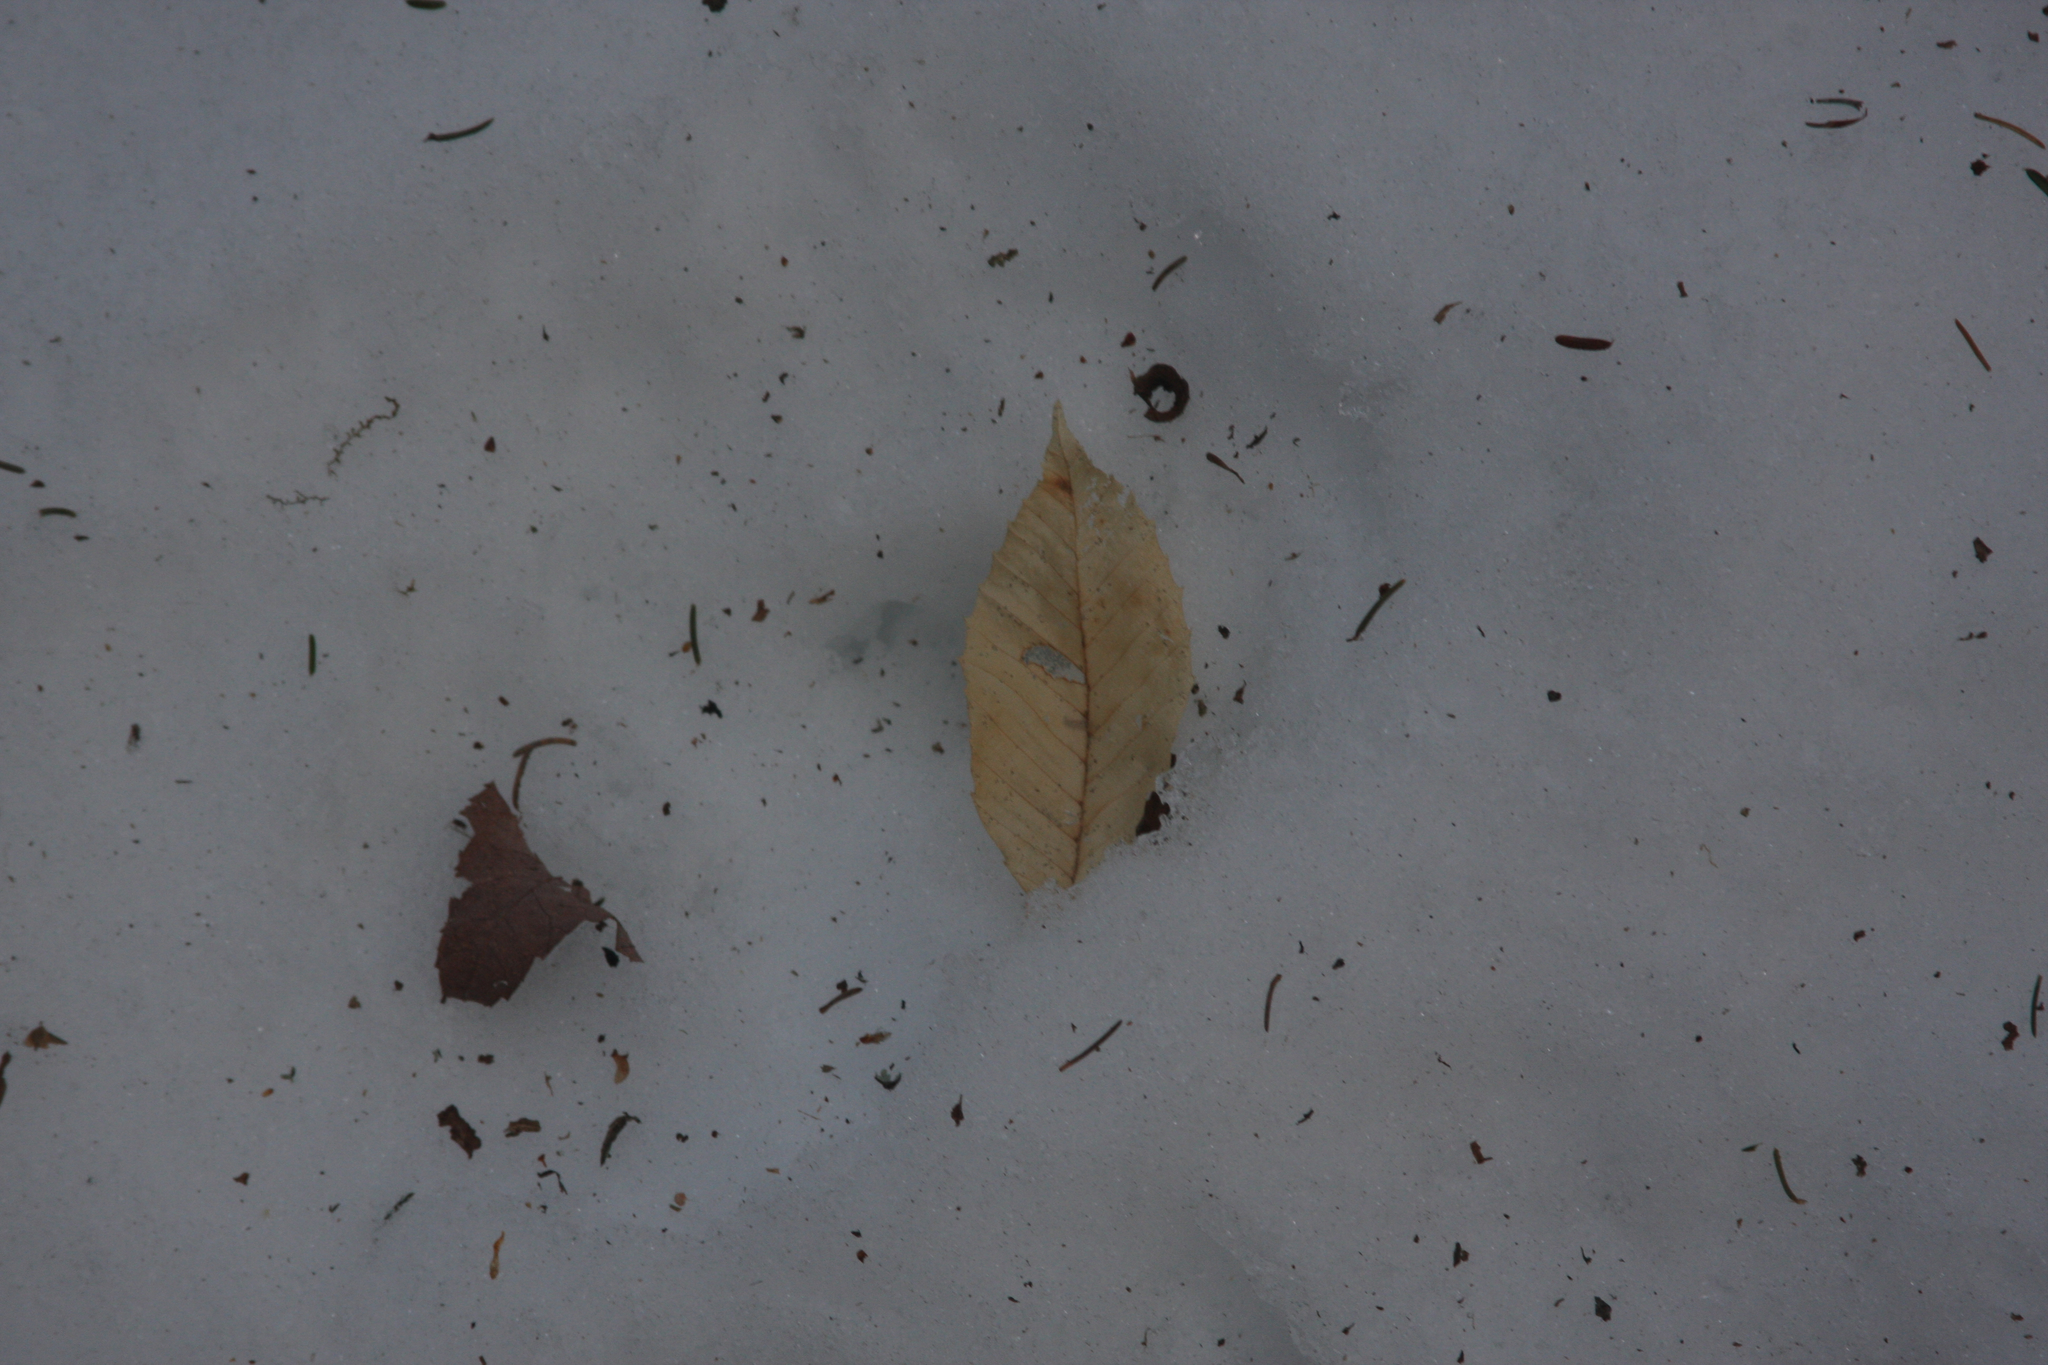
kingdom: Plantae
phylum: Tracheophyta
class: Magnoliopsida
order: Fagales
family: Fagaceae
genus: Fagus
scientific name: Fagus grandifolia
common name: American beech
